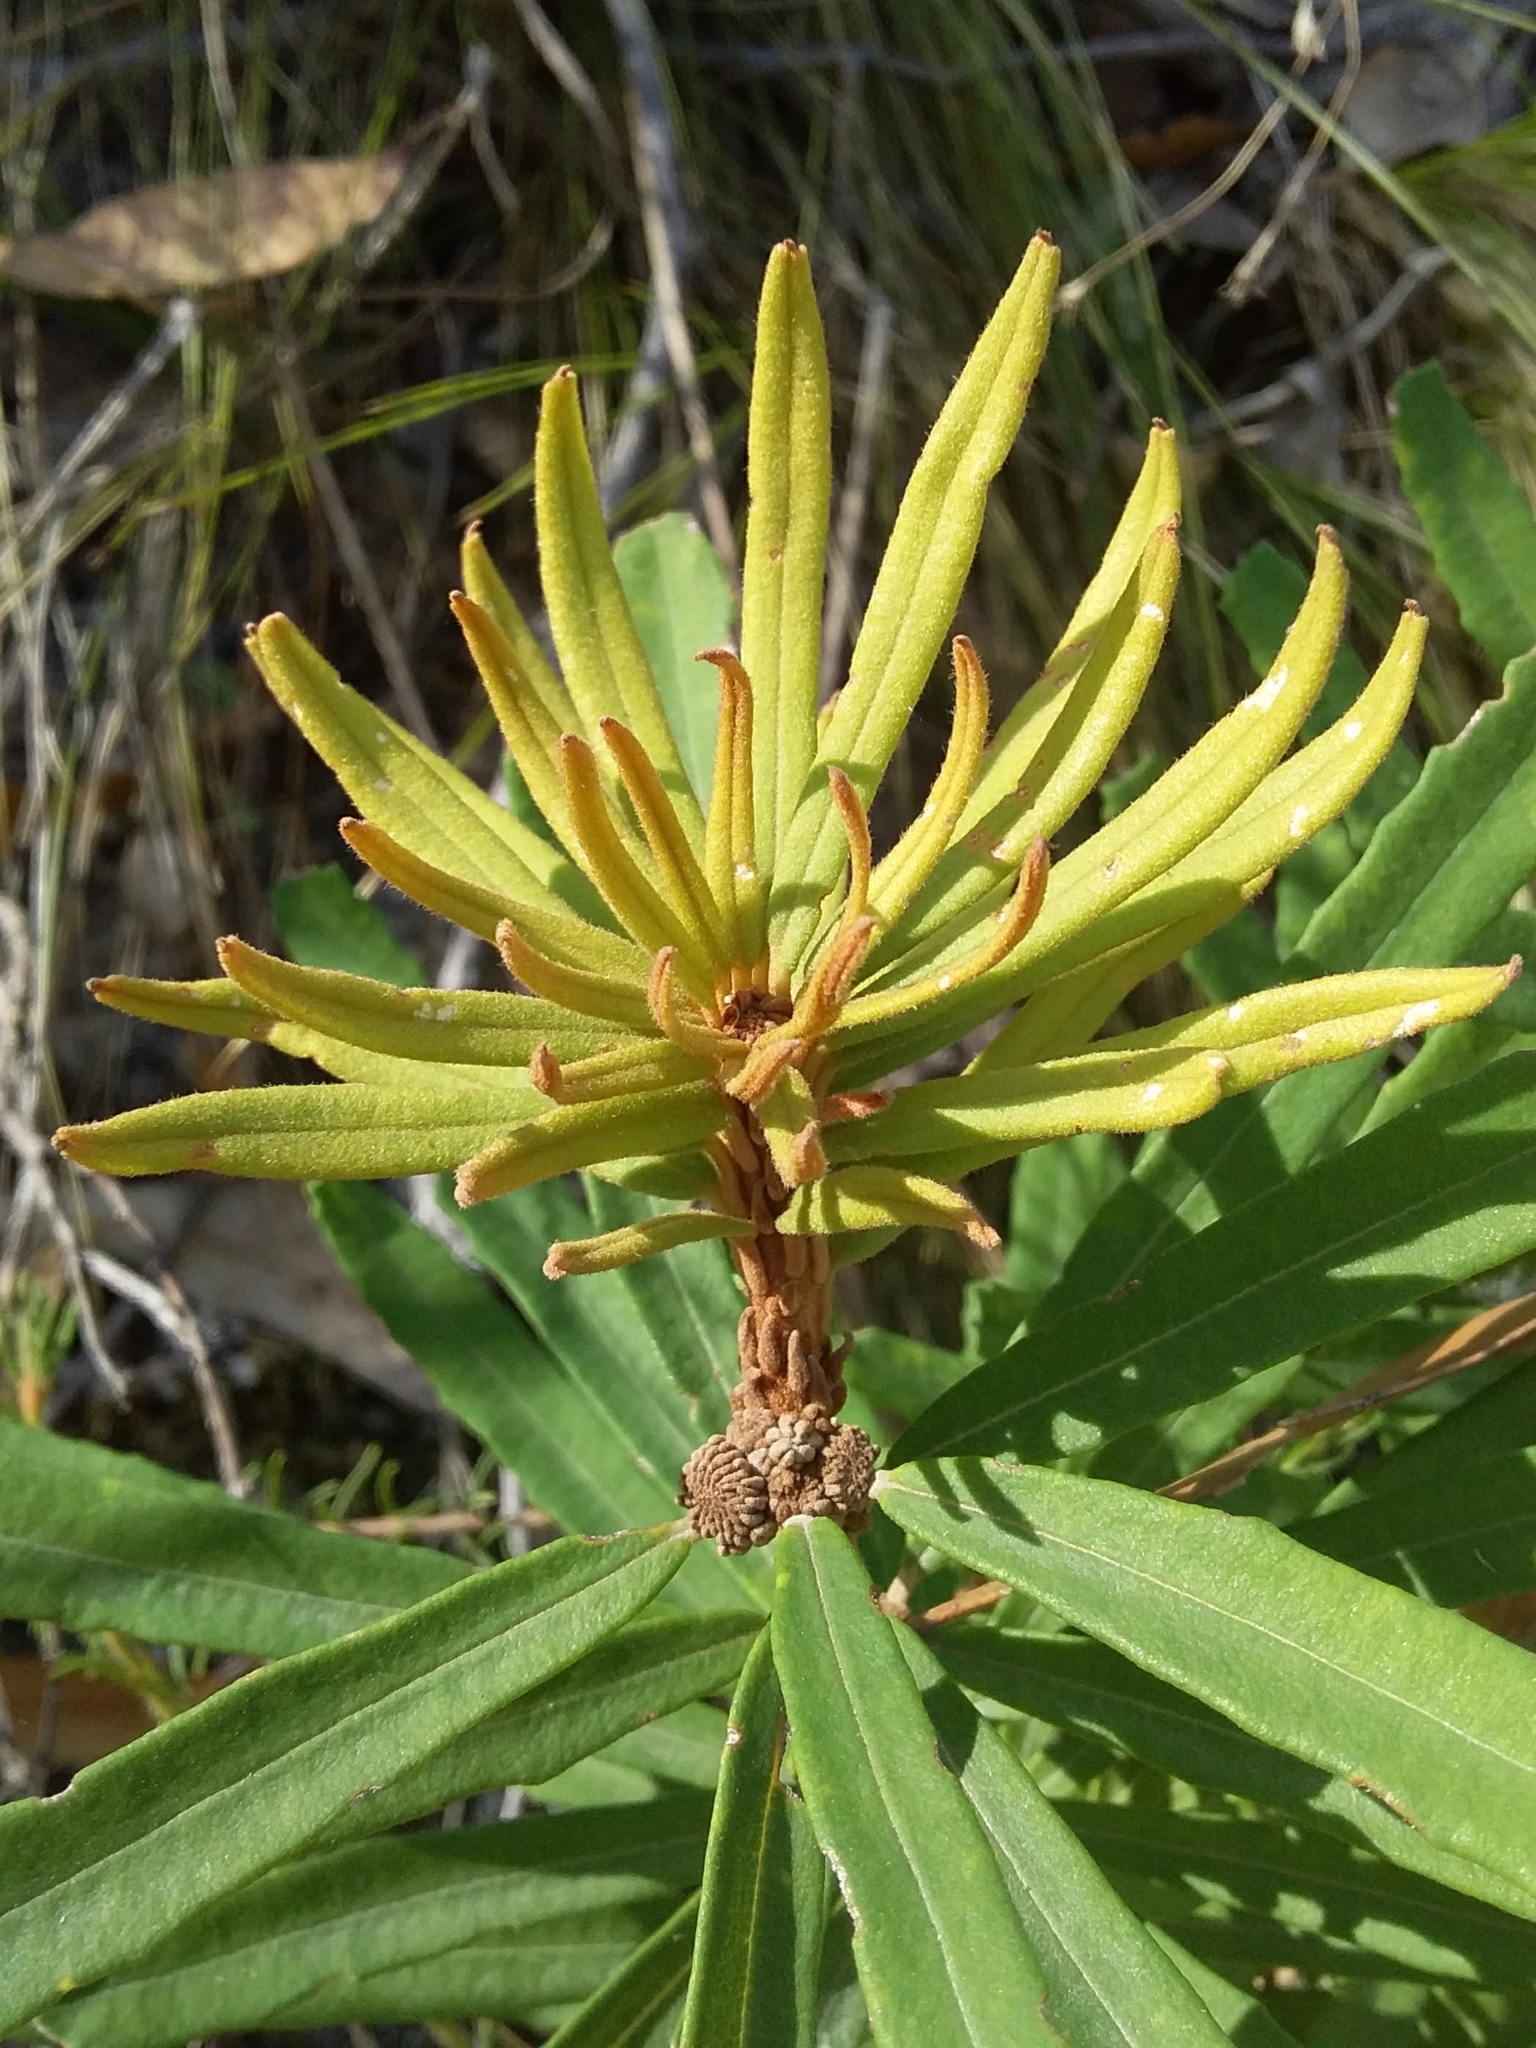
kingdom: Plantae
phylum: Tracheophyta
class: Magnoliopsida
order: Proteales
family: Proteaceae
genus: Banksia
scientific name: Banksia marginata
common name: Silver banksia
